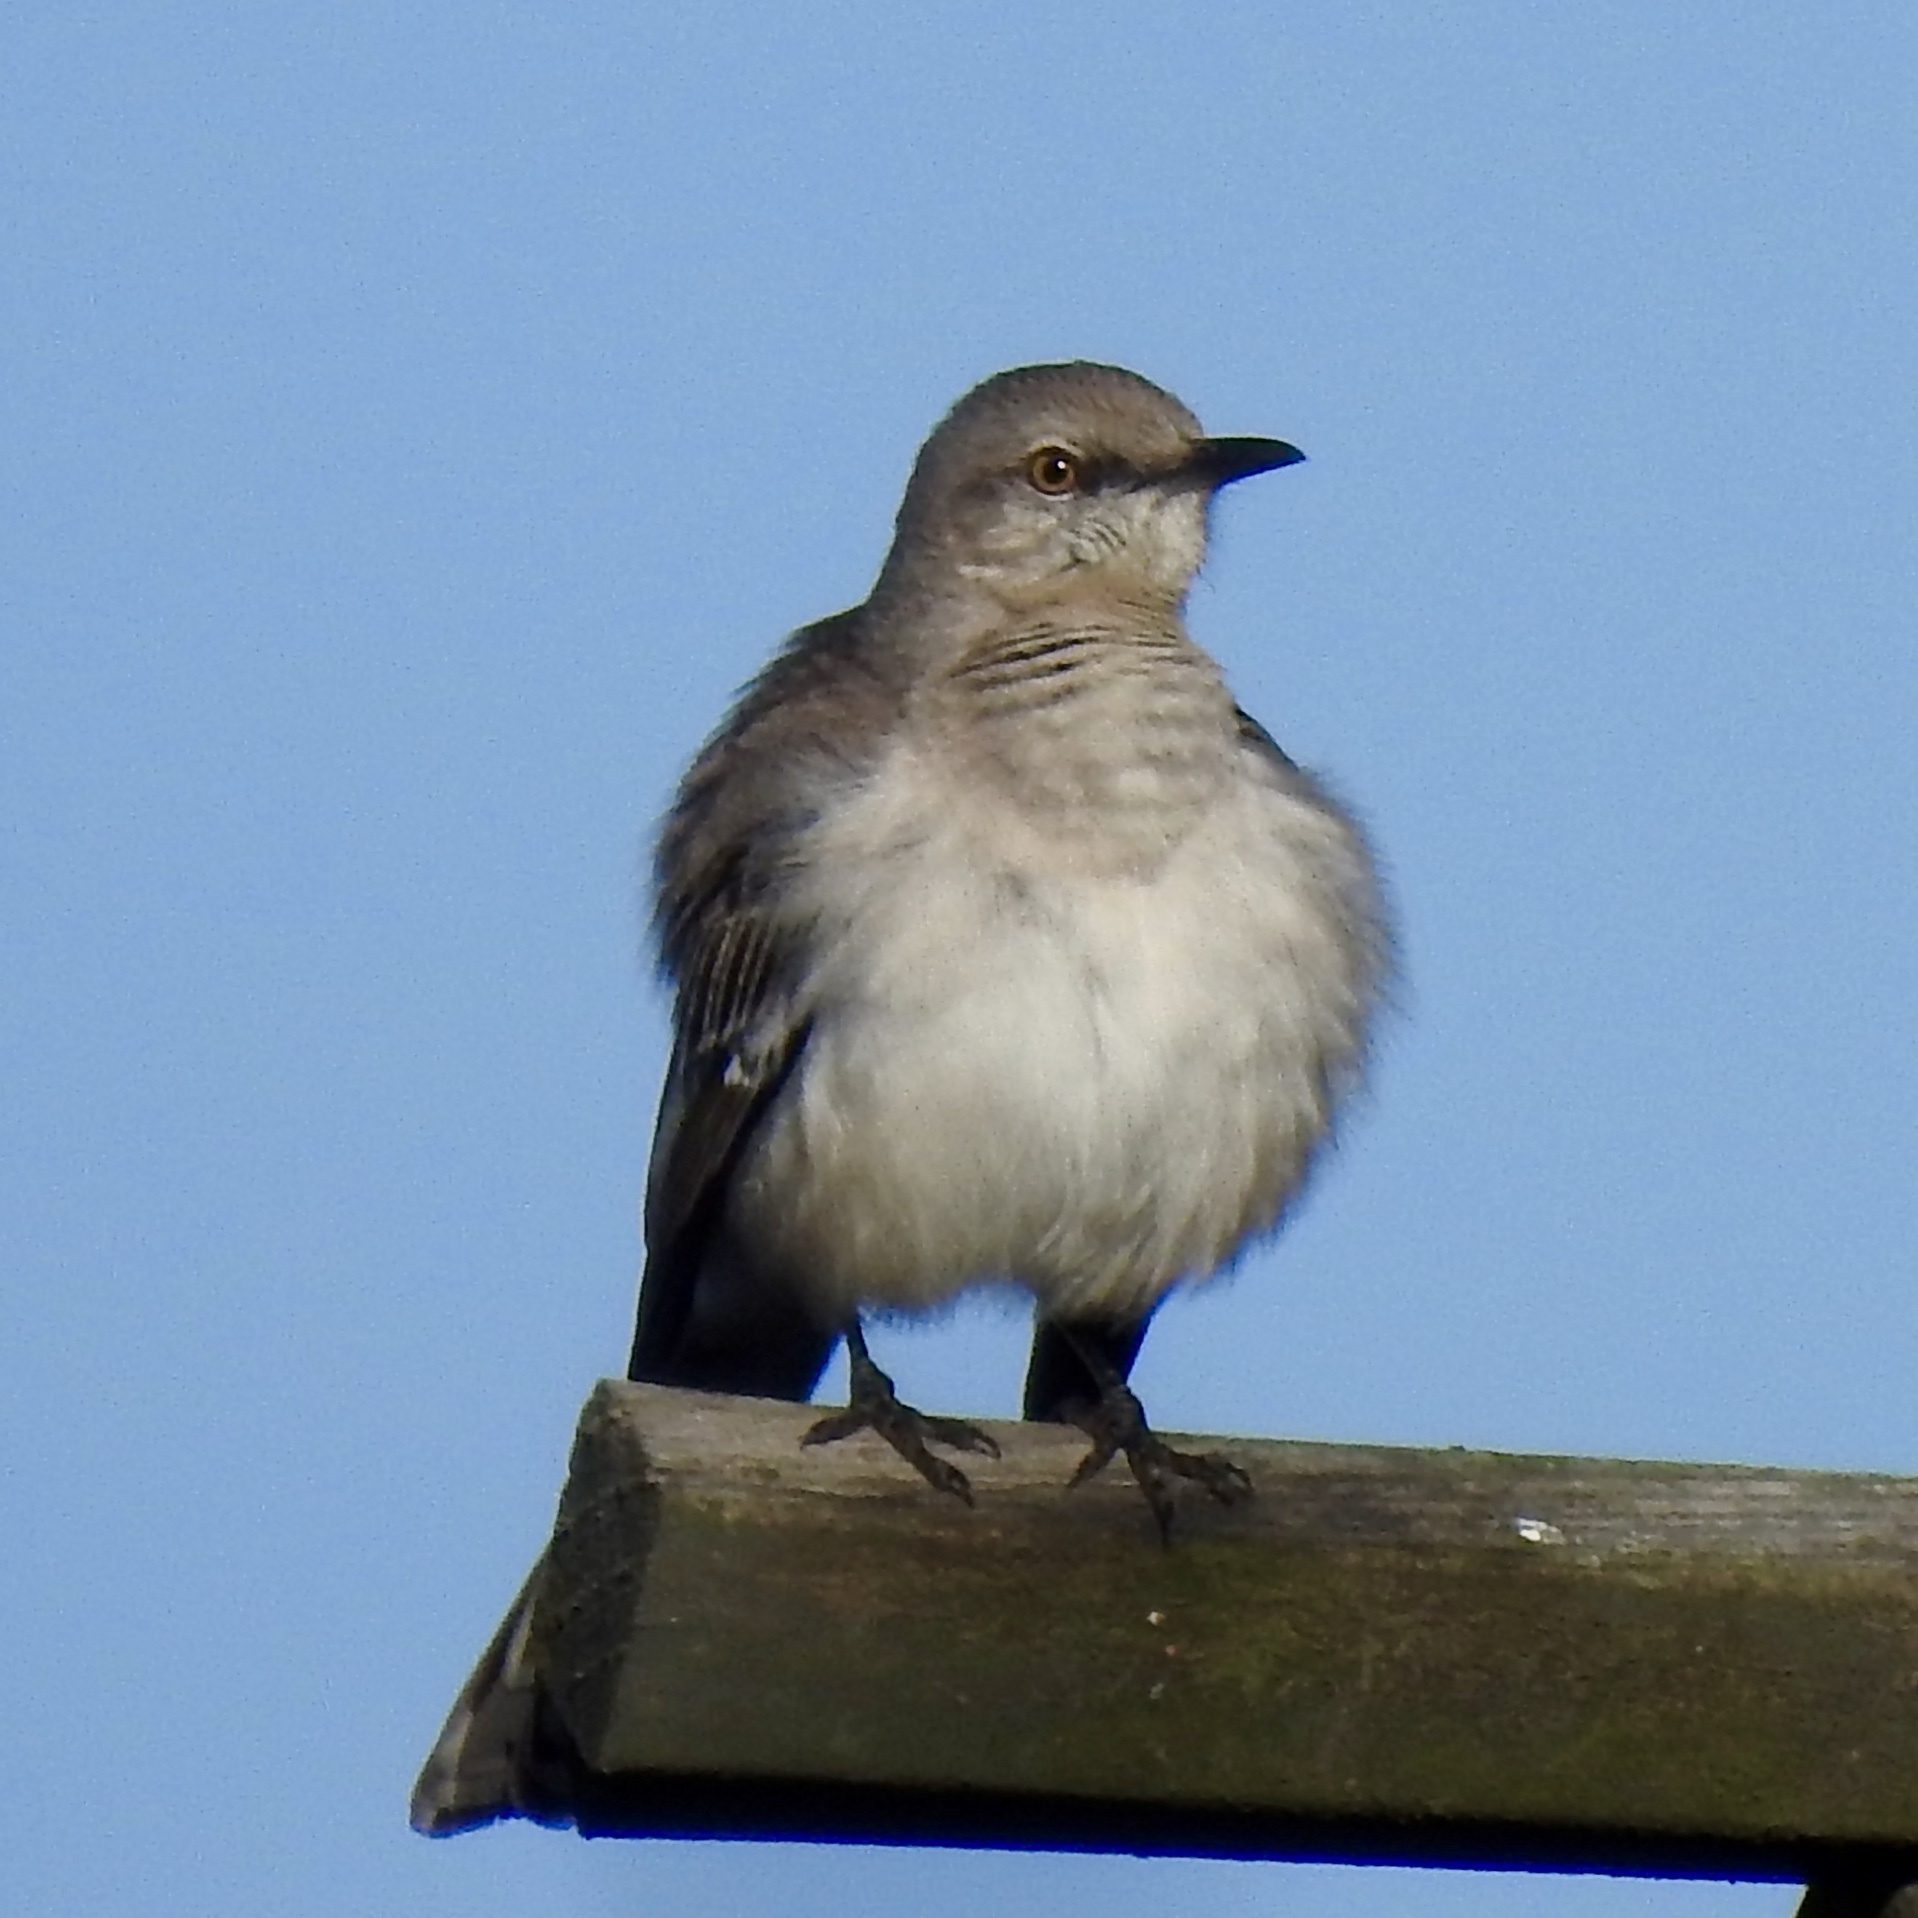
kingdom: Animalia
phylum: Chordata
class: Aves
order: Passeriformes
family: Mimidae
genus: Mimus
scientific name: Mimus polyglottos
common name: Northern mockingbird
